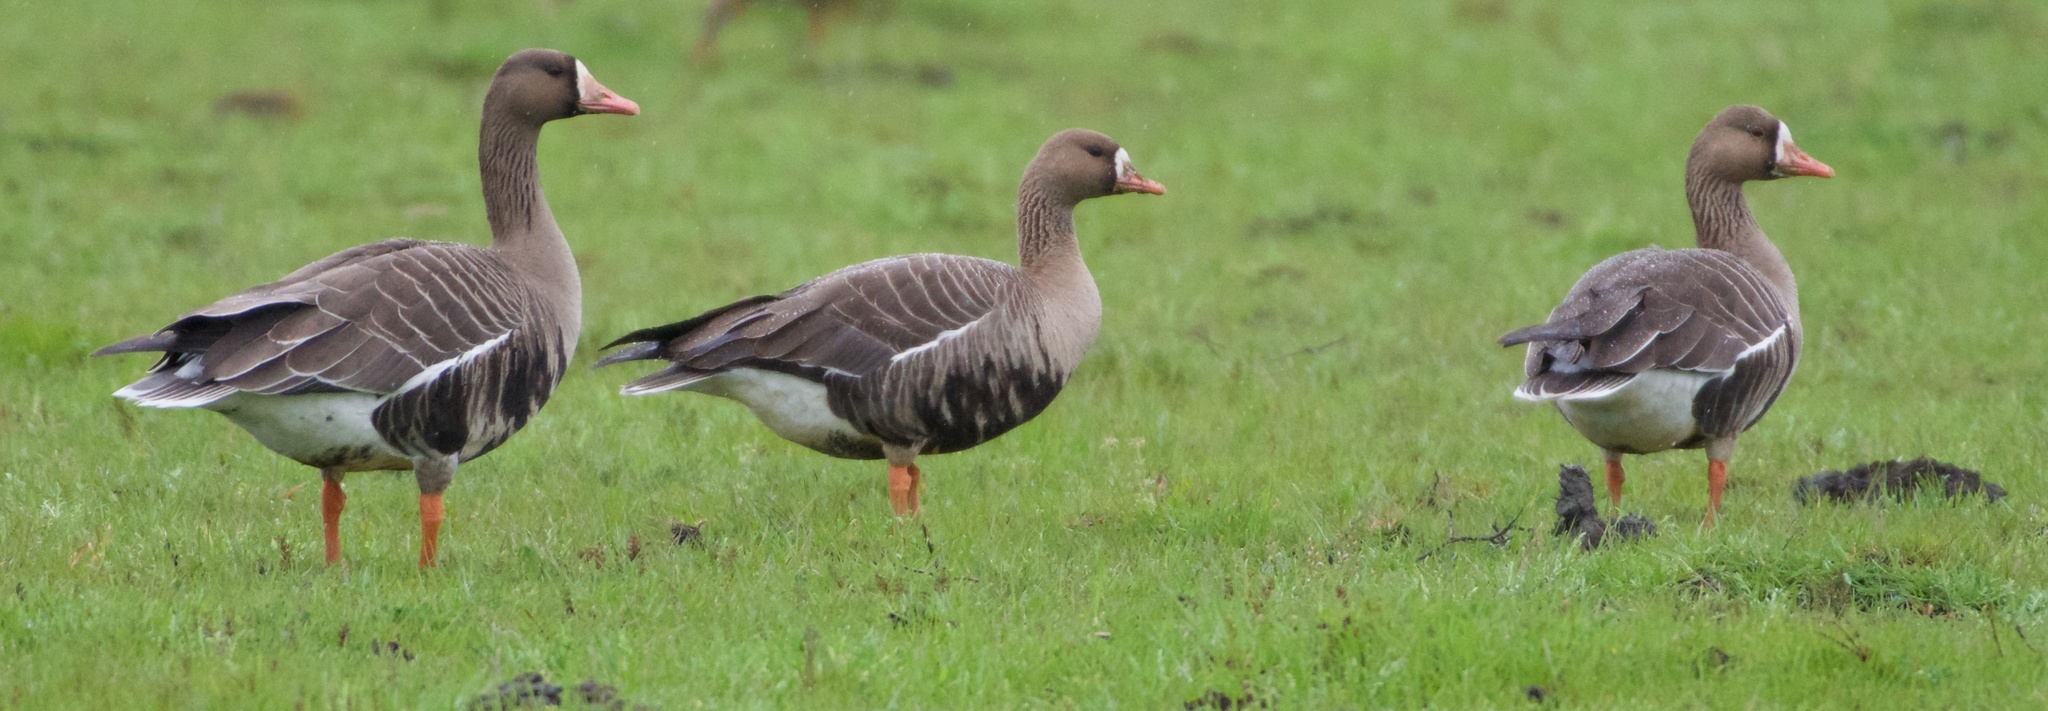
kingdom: Animalia
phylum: Chordata
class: Aves
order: Anseriformes
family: Anatidae
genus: Anser
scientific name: Anser albifrons
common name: Greater white-fronted goose
